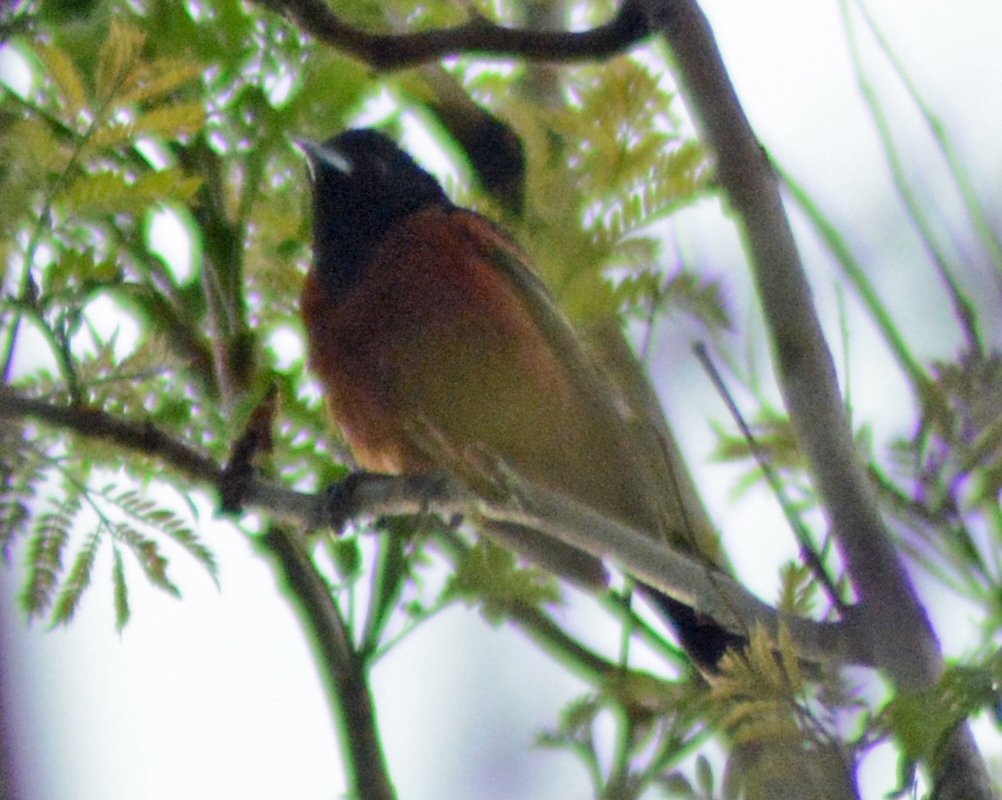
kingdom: Animalia
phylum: Chordata
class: Aves
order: Passeriformes
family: Icteridae
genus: Icterus
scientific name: Icterus spurius
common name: Orchard oriole
